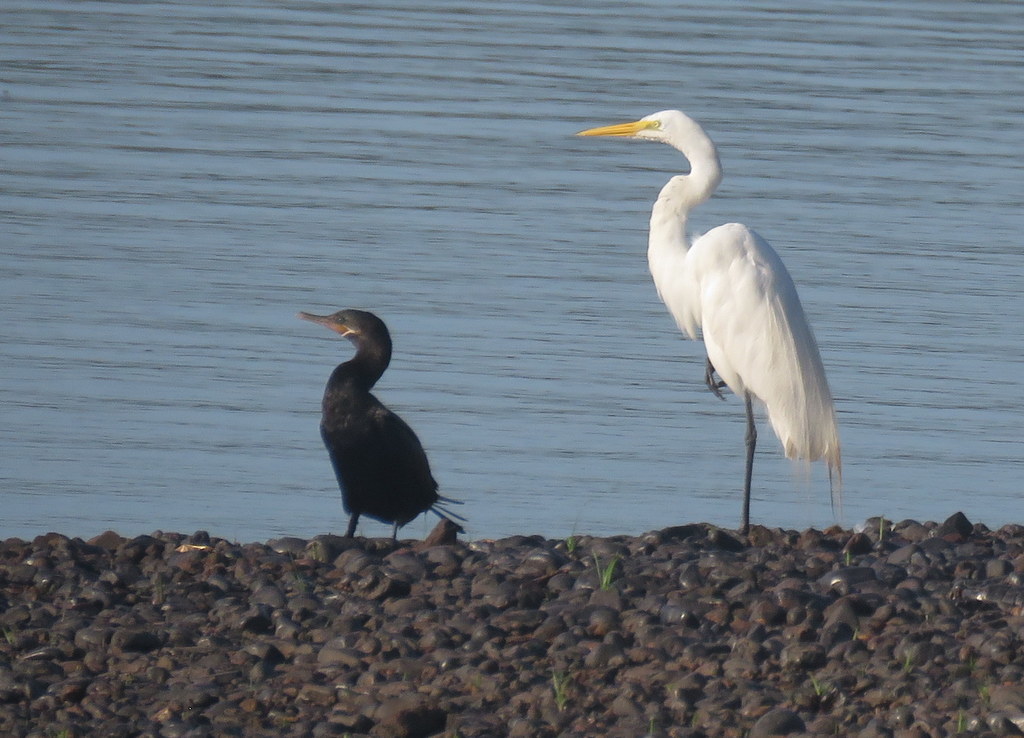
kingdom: Animalia
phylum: Chordata
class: Aves
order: Pelecaniformes
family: Ardeidae
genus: Ardea
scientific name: Ardea alba
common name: Great egret
